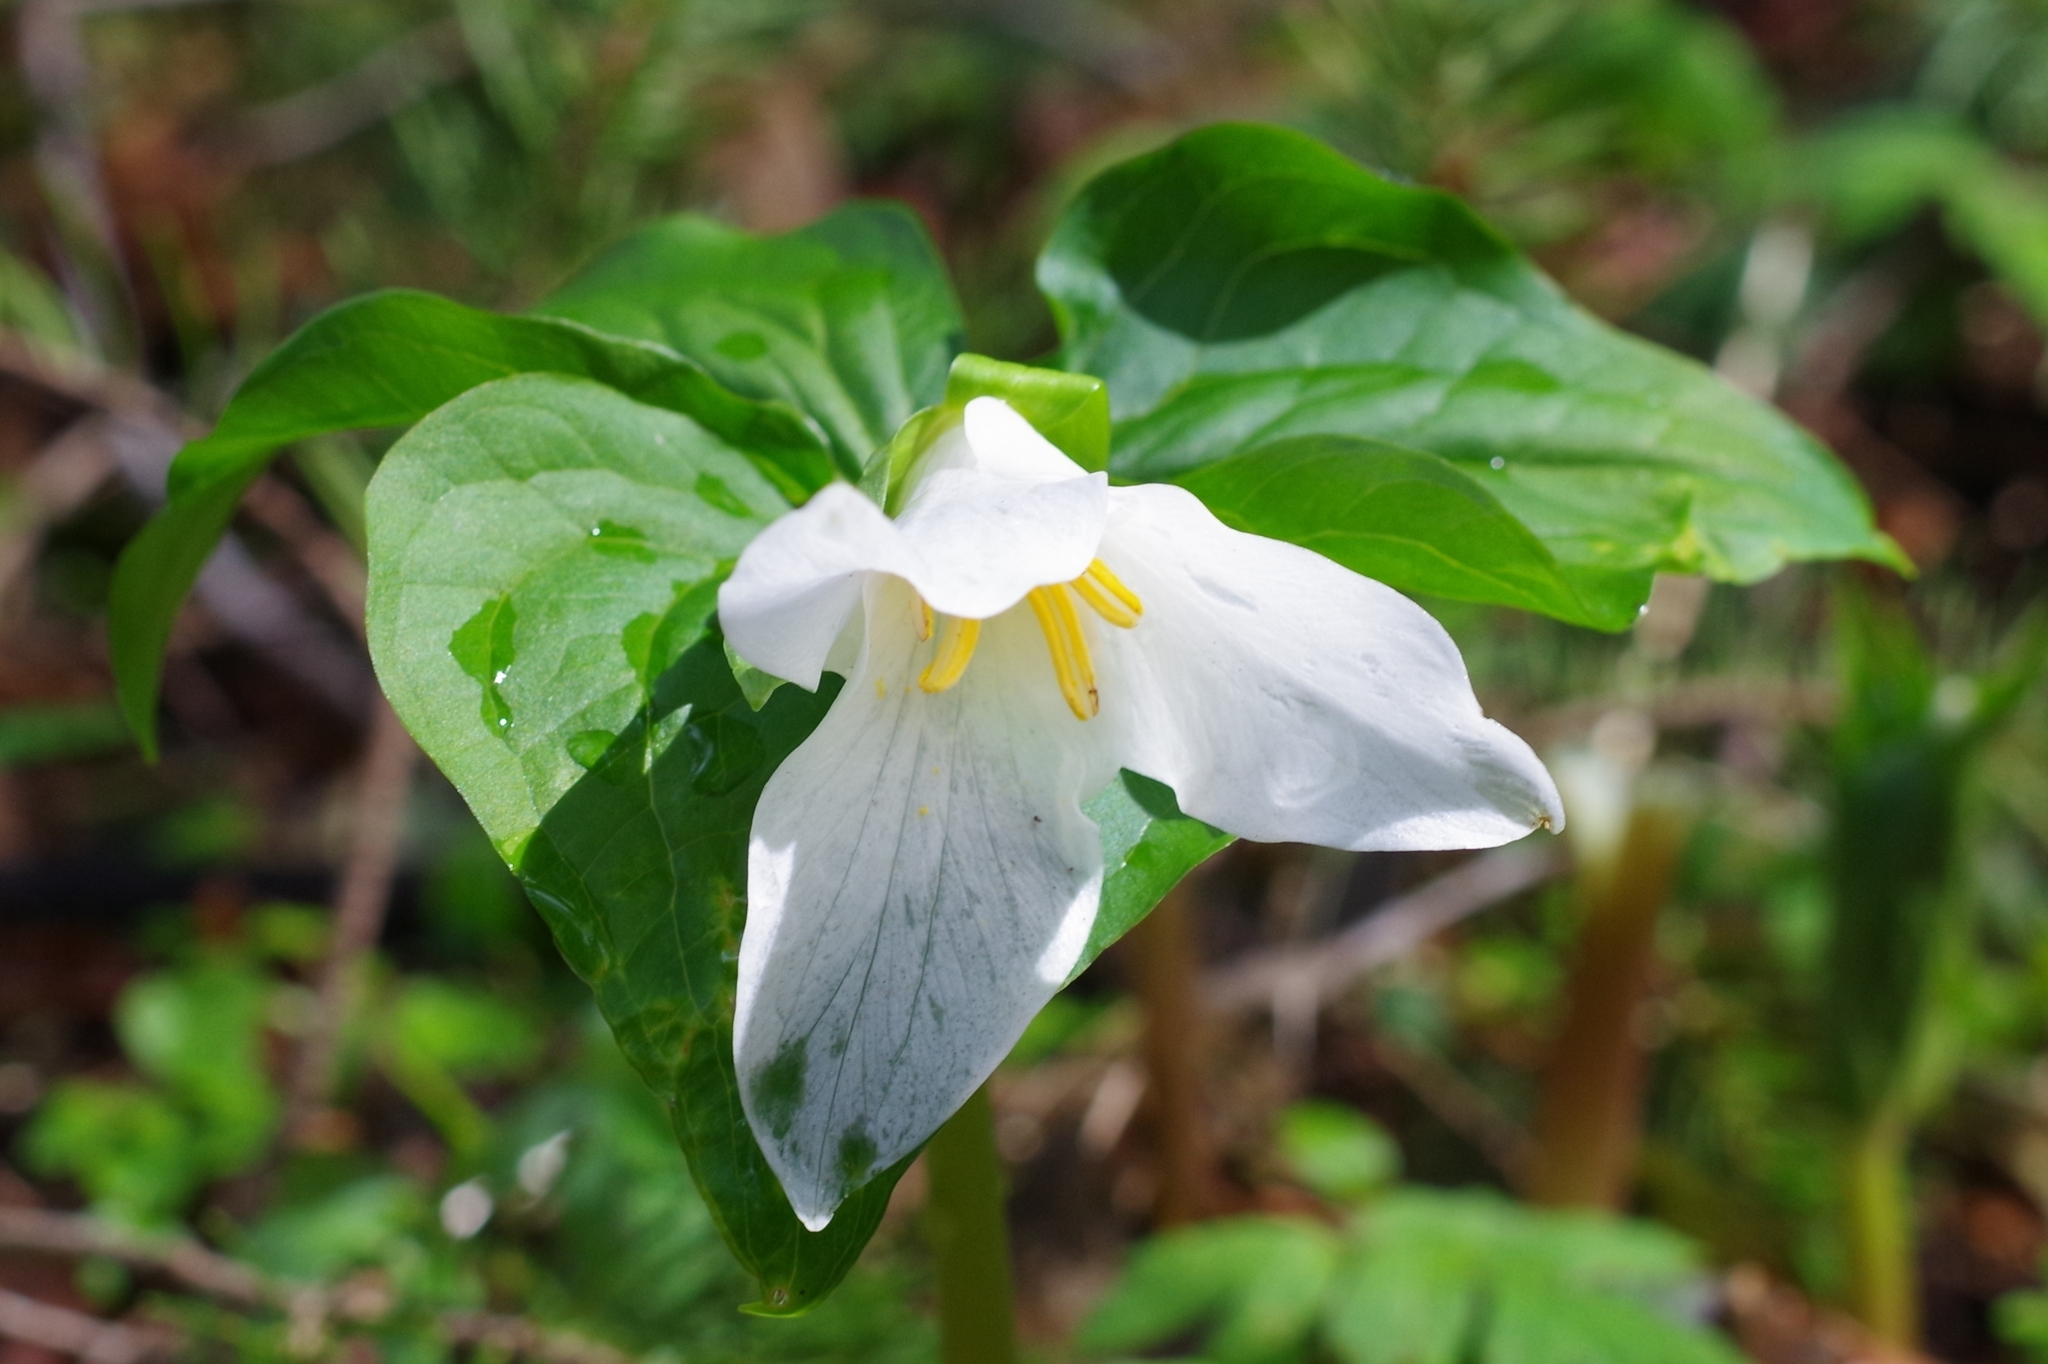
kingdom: Plantae
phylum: Tracheophyta
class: Liliopsida
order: Liliales
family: Melanthiaceae
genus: Trillium
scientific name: Trillium ovatum
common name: Pacific trillium
